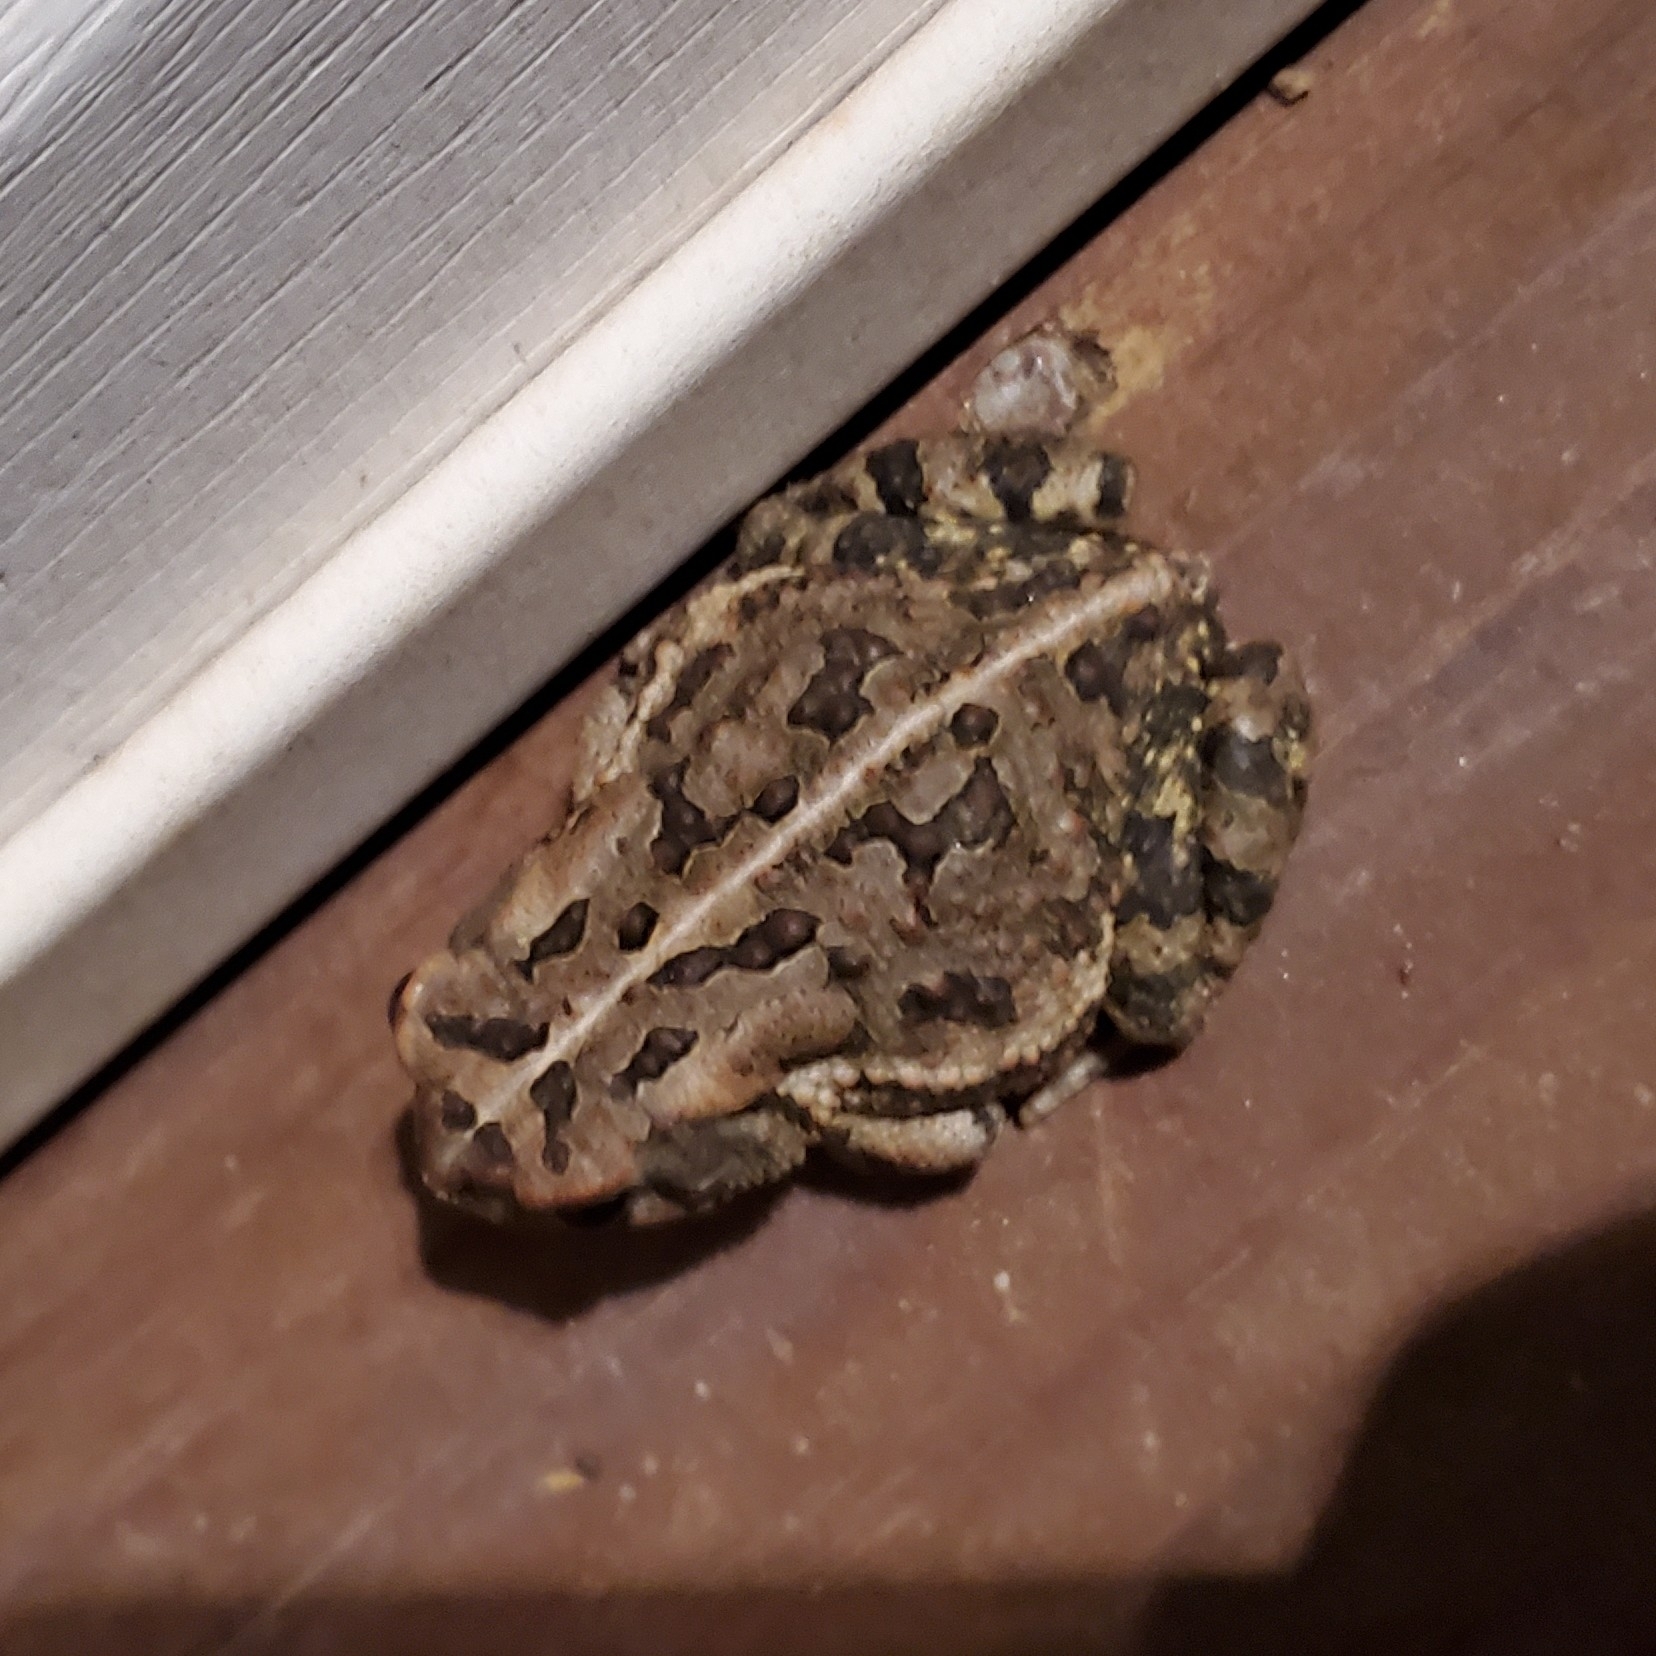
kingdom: Animalia
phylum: Chordata
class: Amphibia
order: Anura
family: Bufonidae
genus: Anaxyrus
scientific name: Anaxyrus fowleri
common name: Fowler's toad
